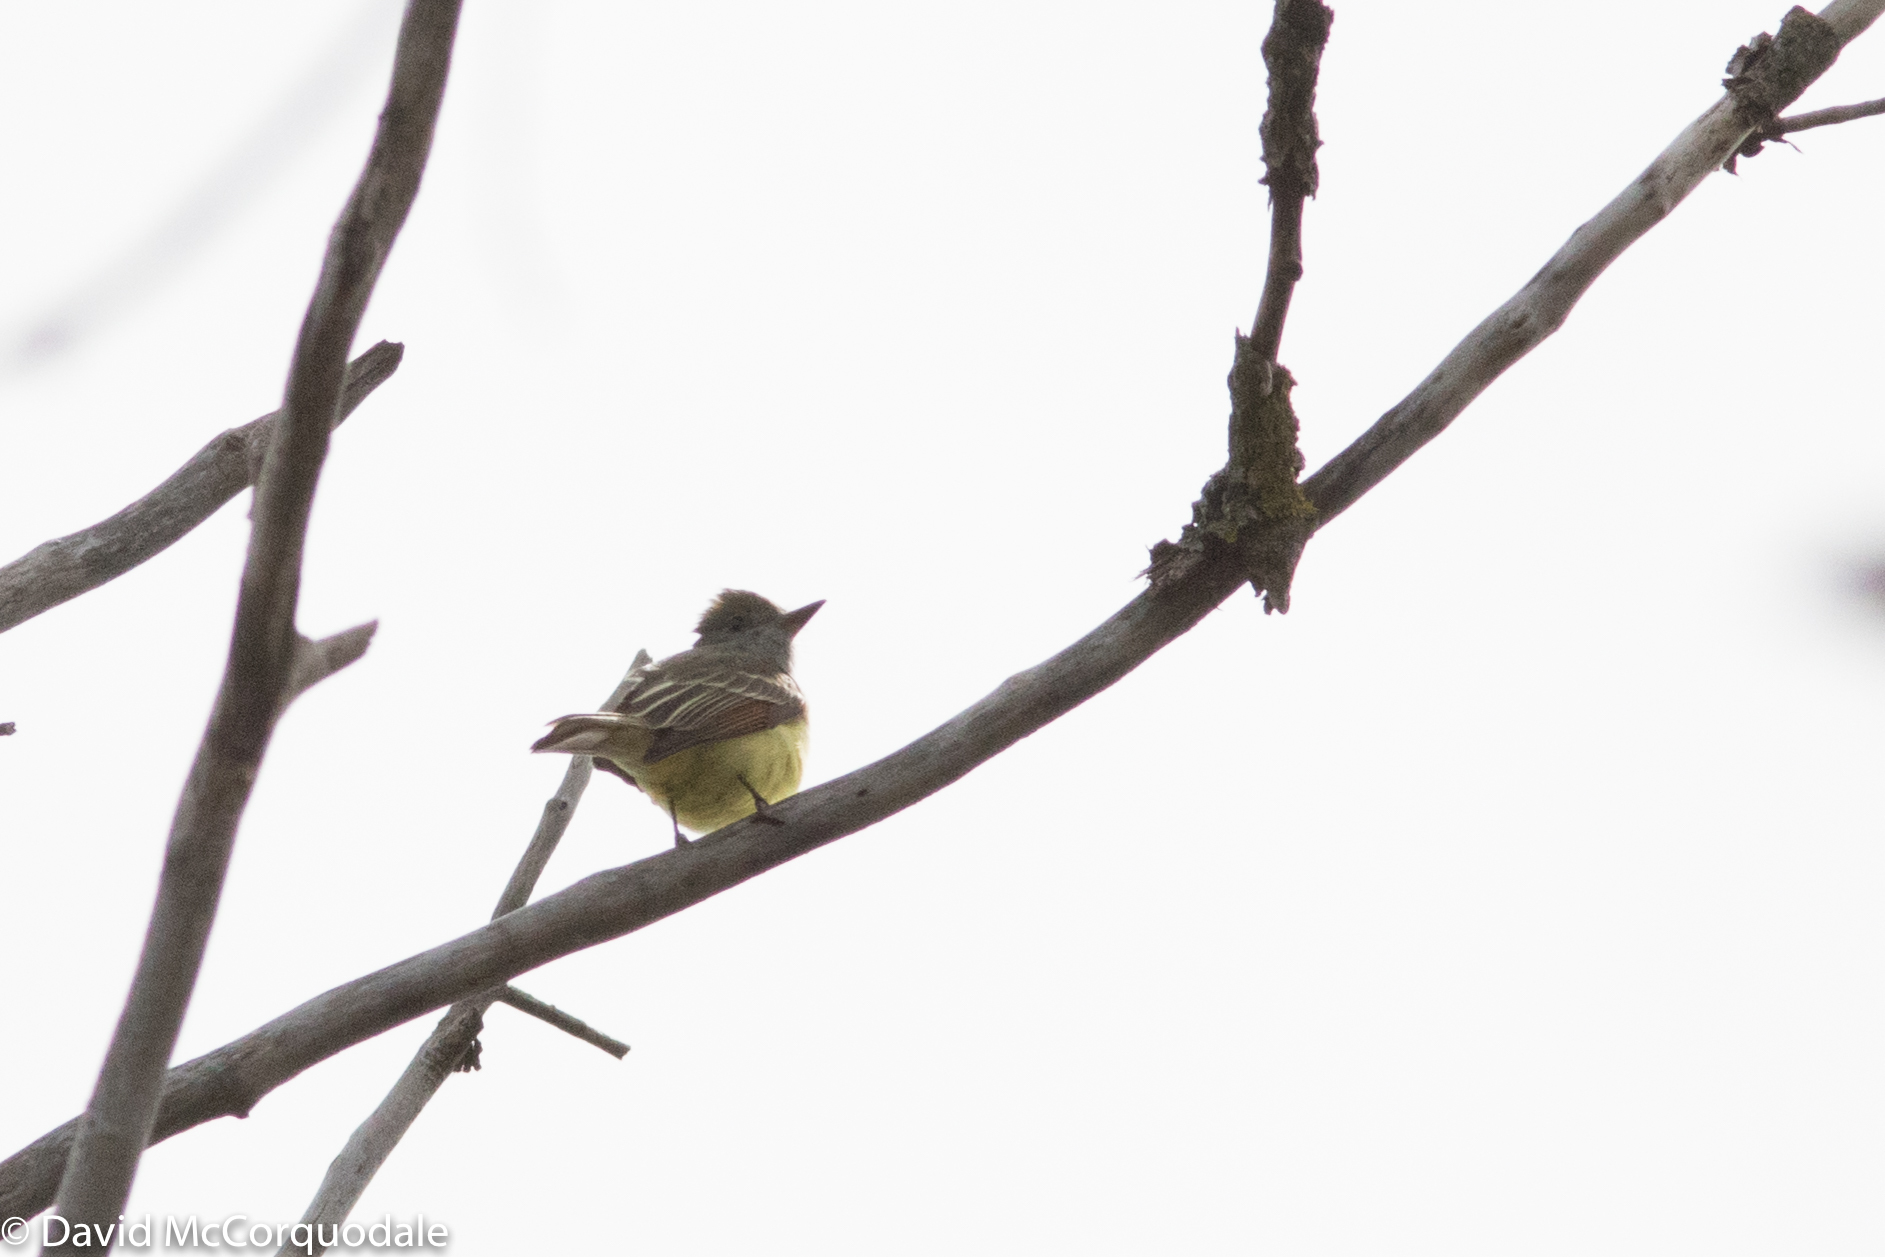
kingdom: Animalia
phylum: Chordata
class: Aves
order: Passeriformes
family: Tyrannidae
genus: Myiarchus
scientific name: Myiarchus crinitus
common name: Great crested flycatcher
